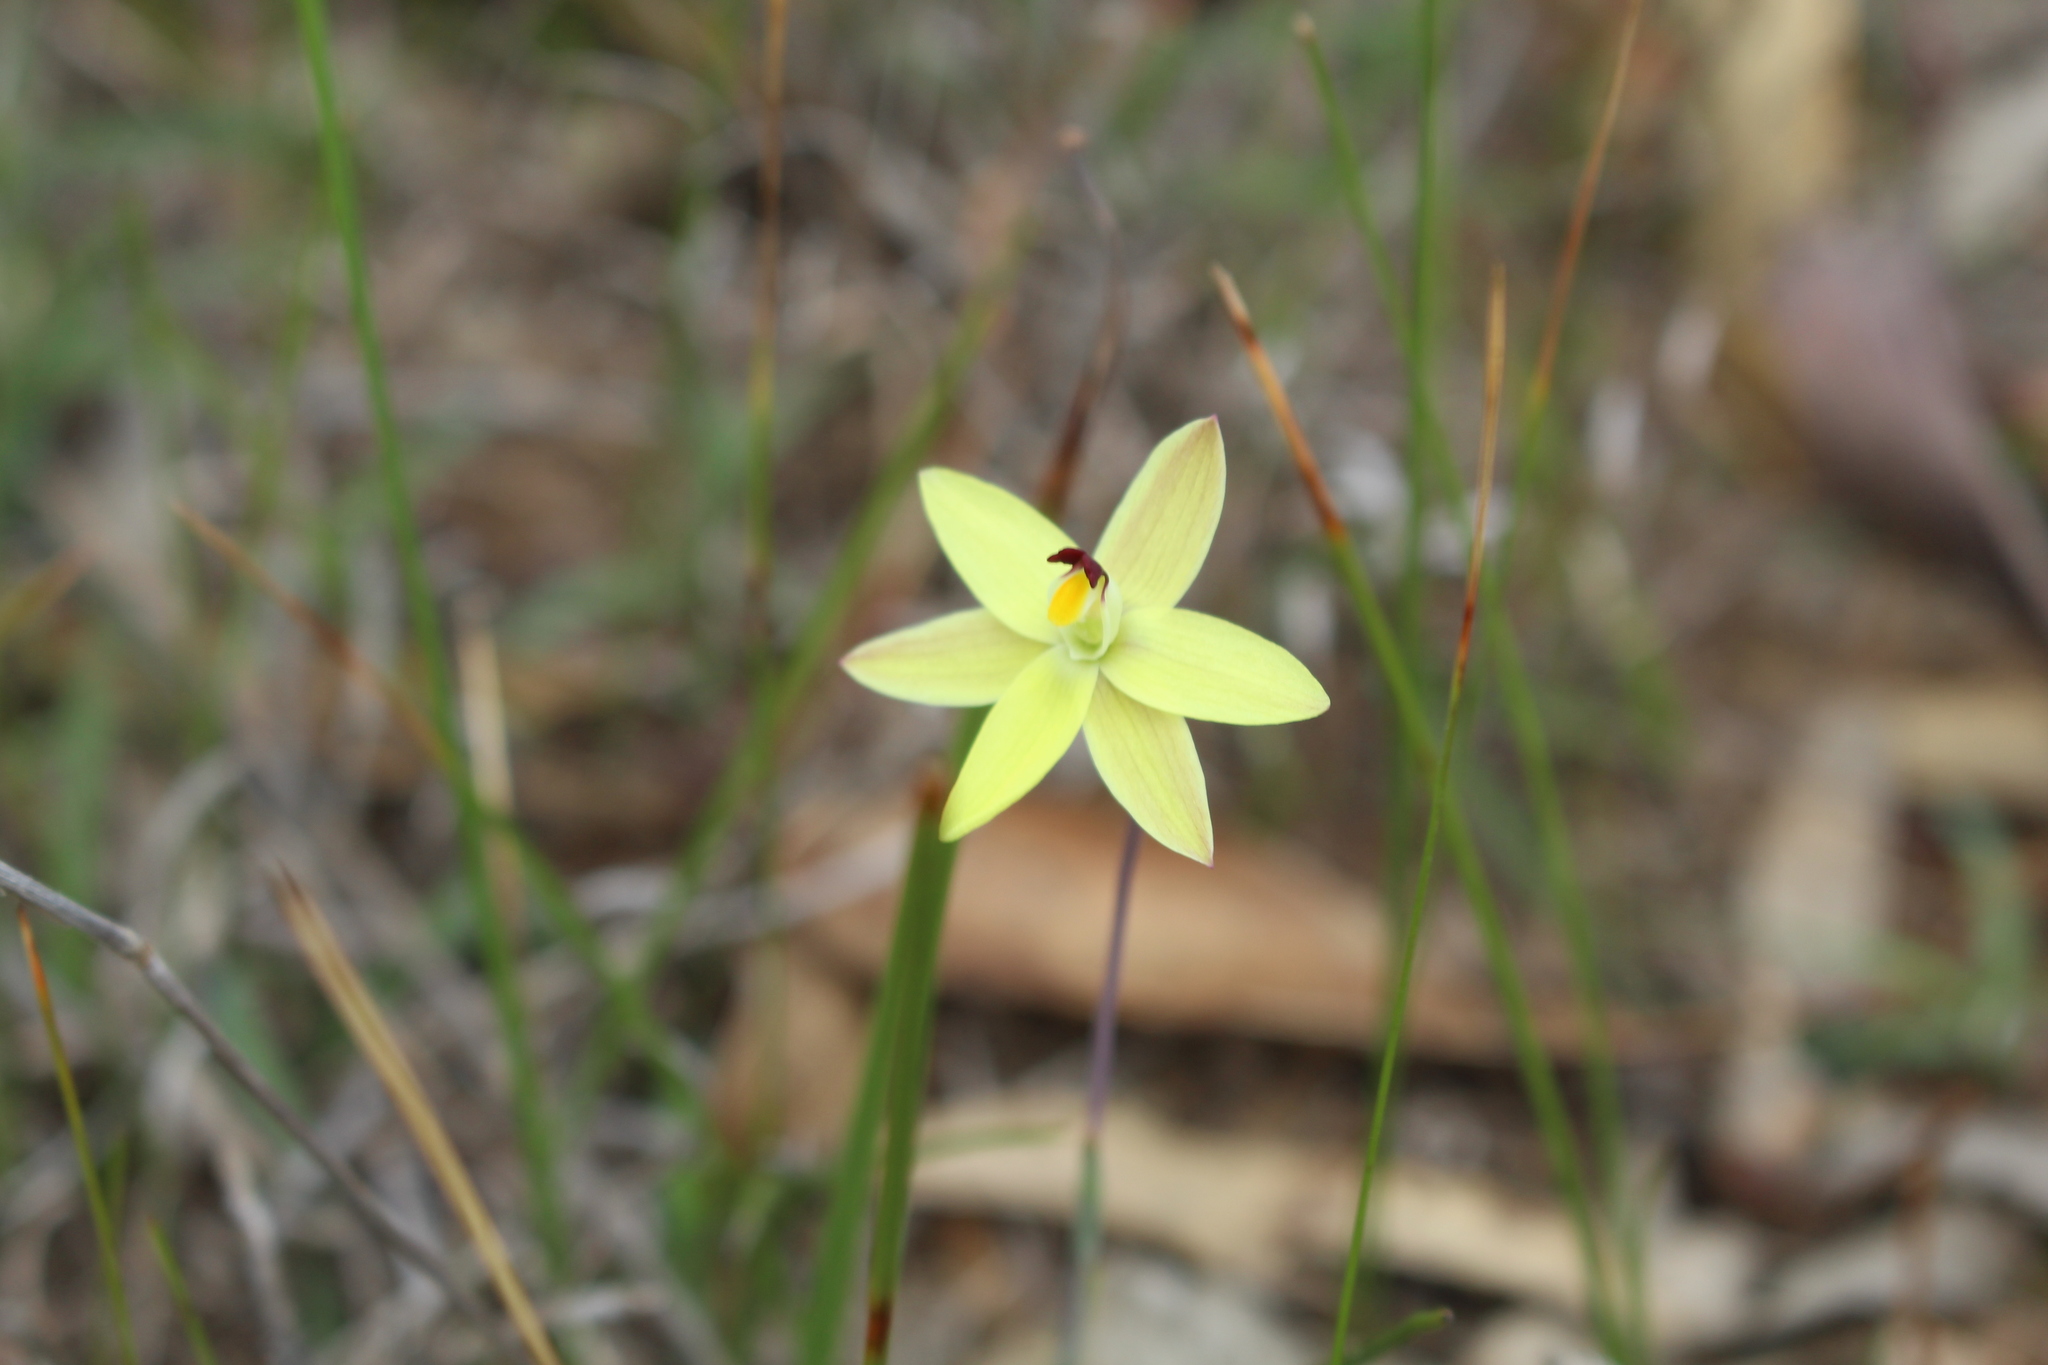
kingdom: Plantae
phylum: Tracheophyta
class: Liliopsida
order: Asparagales
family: Orchidaceae
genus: Thelymitra
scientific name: Thelymitra antennifera
